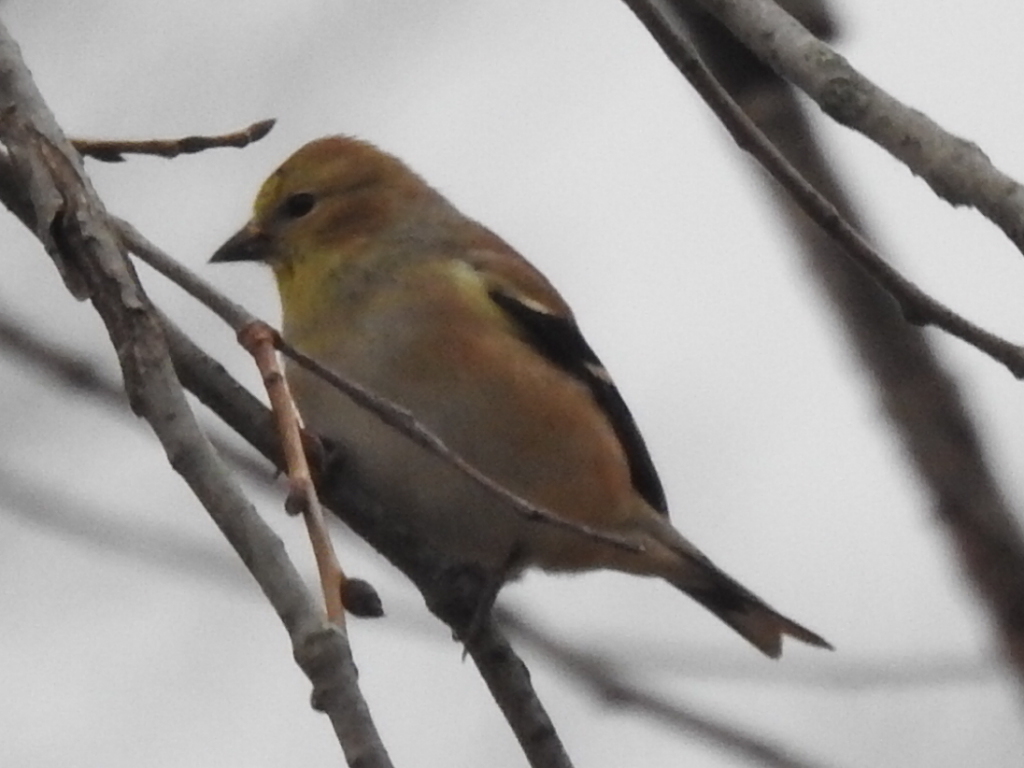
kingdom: Animalia
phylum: Chordata
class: Aves
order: Passeriformes
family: Fringillidae
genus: Spinus
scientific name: Spinus tristis
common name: American goldfinch
